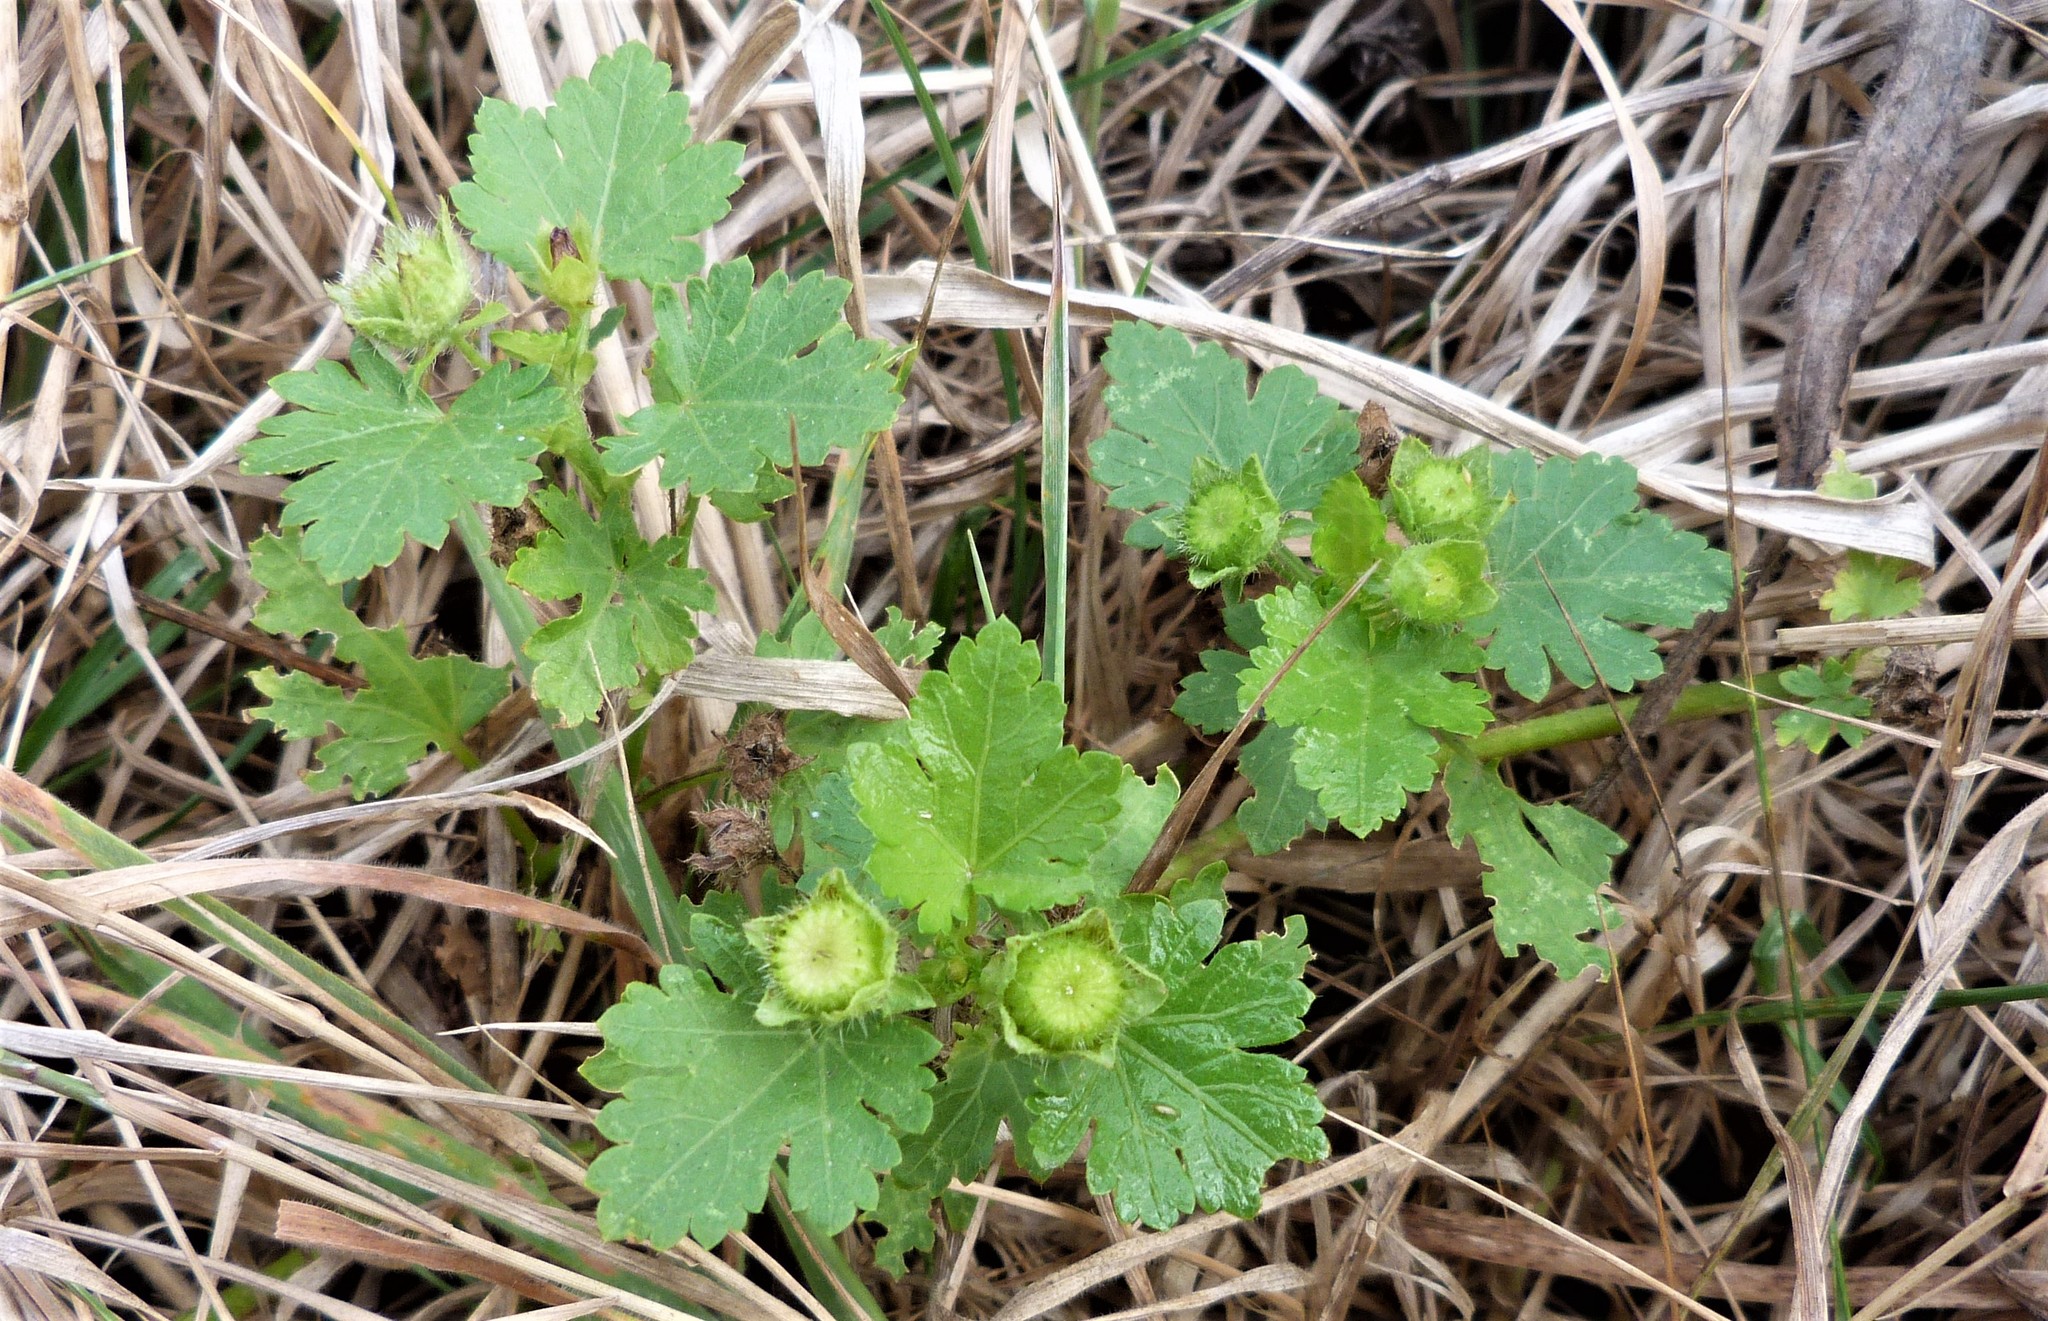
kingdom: Plantae
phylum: Tracheophyta
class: Magnoliopsida
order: Malvales
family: Malvaceae
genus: Modiola
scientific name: Modiola caroliniana
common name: Carolina bristlemallow
